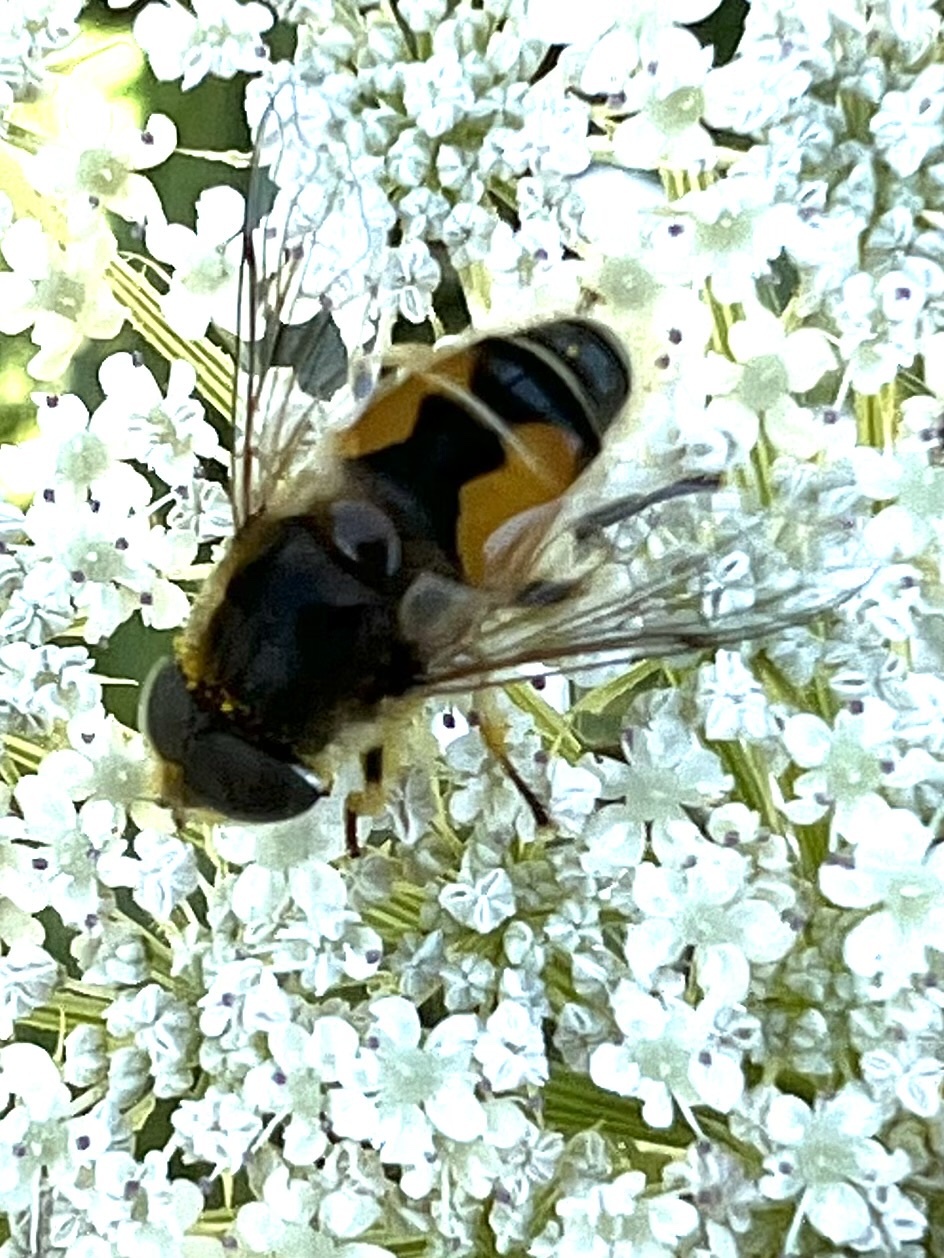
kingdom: Animalia
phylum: Arthropoda
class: Insecta
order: Diptera
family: Syrphidae
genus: Eristalis
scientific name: Eristalis arbustorum
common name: Hover fly
